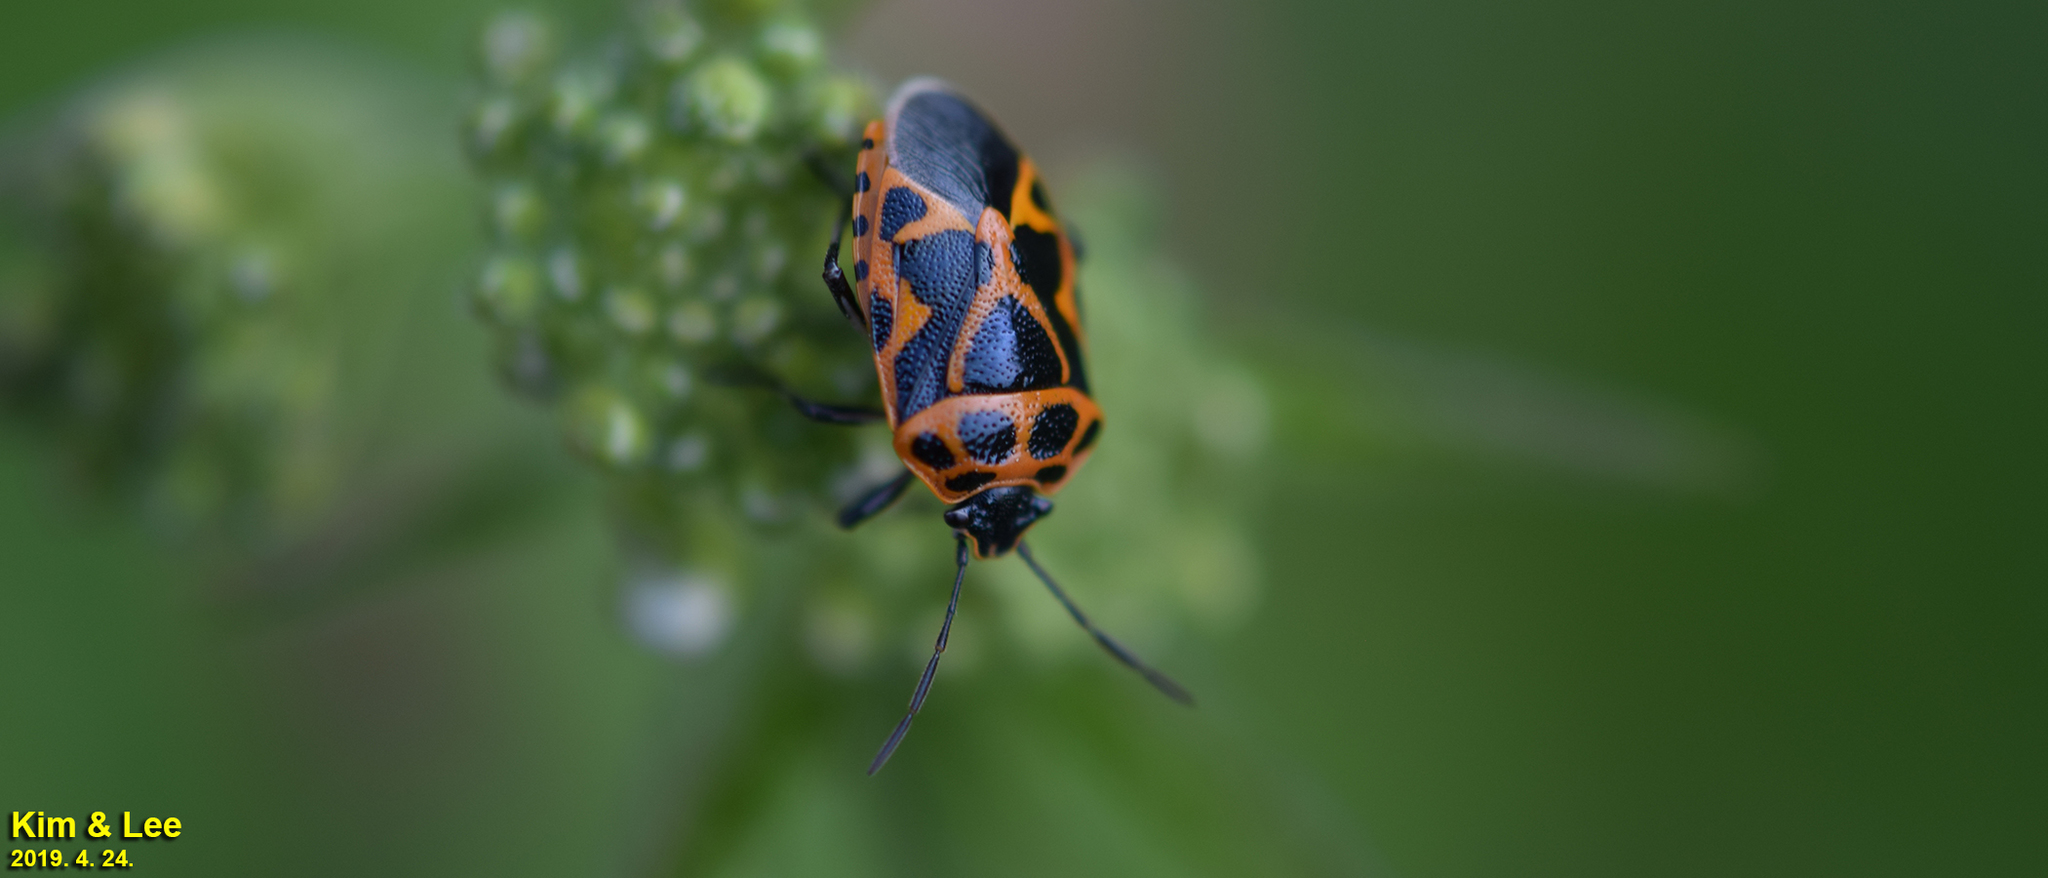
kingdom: Animalia
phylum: Arthropoda
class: Insecta
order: Hemiptera
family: Pentatomidae
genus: Eurydema
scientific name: Eurydema dominulus
